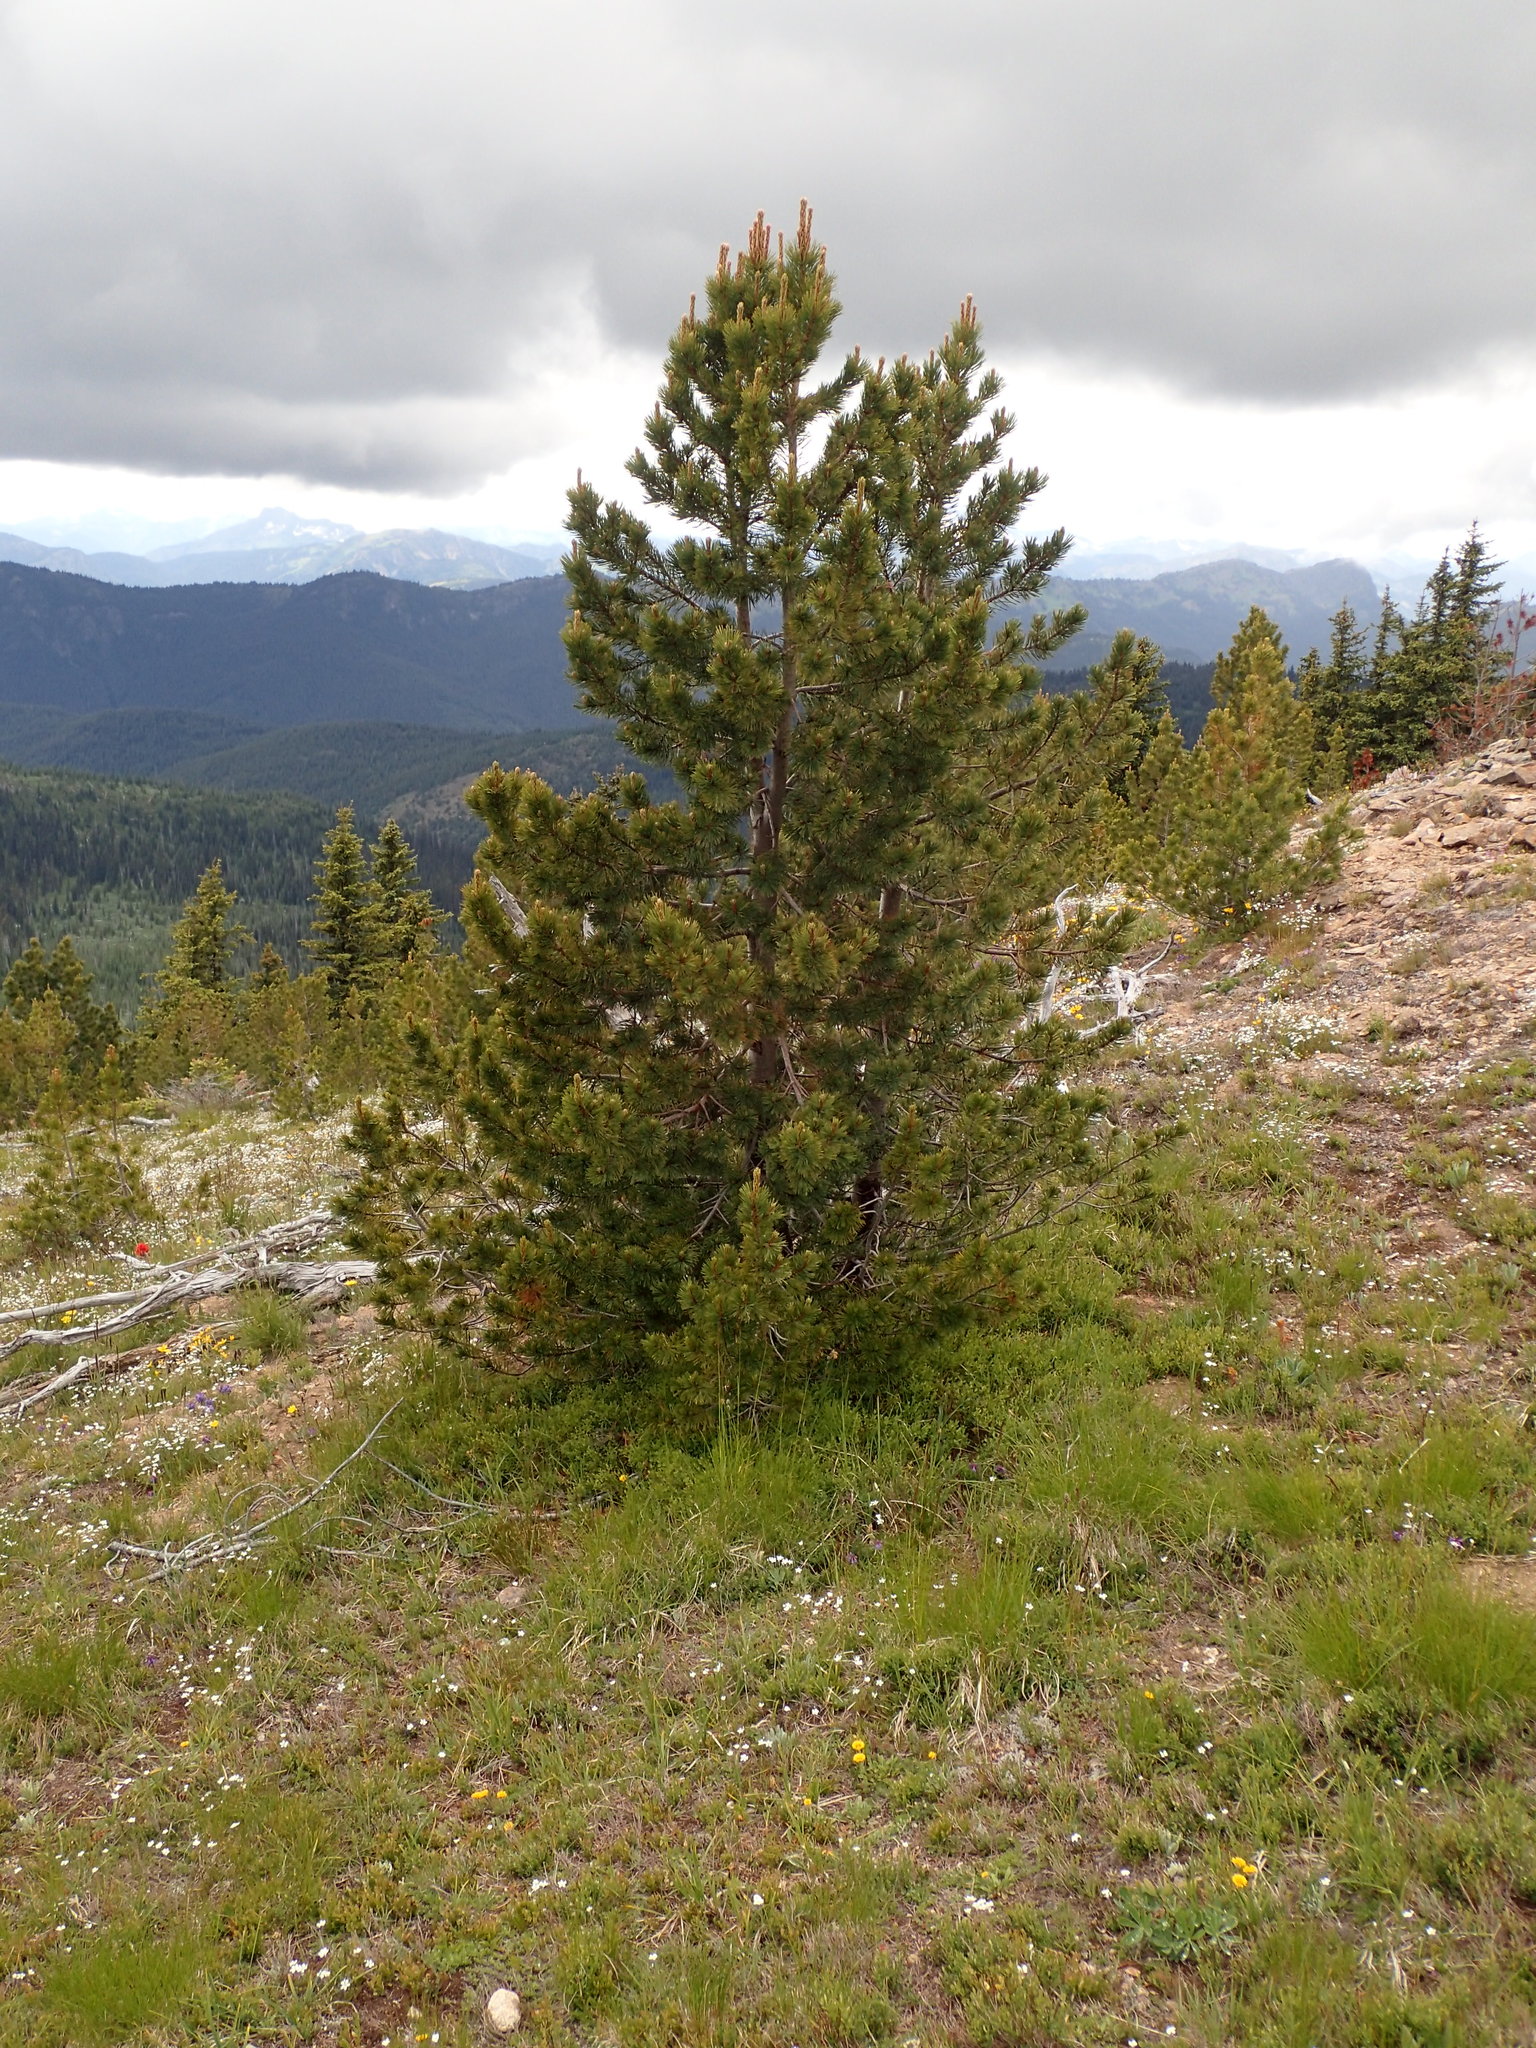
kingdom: Plantae
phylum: Tracheophyta
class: Pinopsida
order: Pinales
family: Pinaceae
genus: Pinus
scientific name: Pinus albicaulis
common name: Whitebark pine
